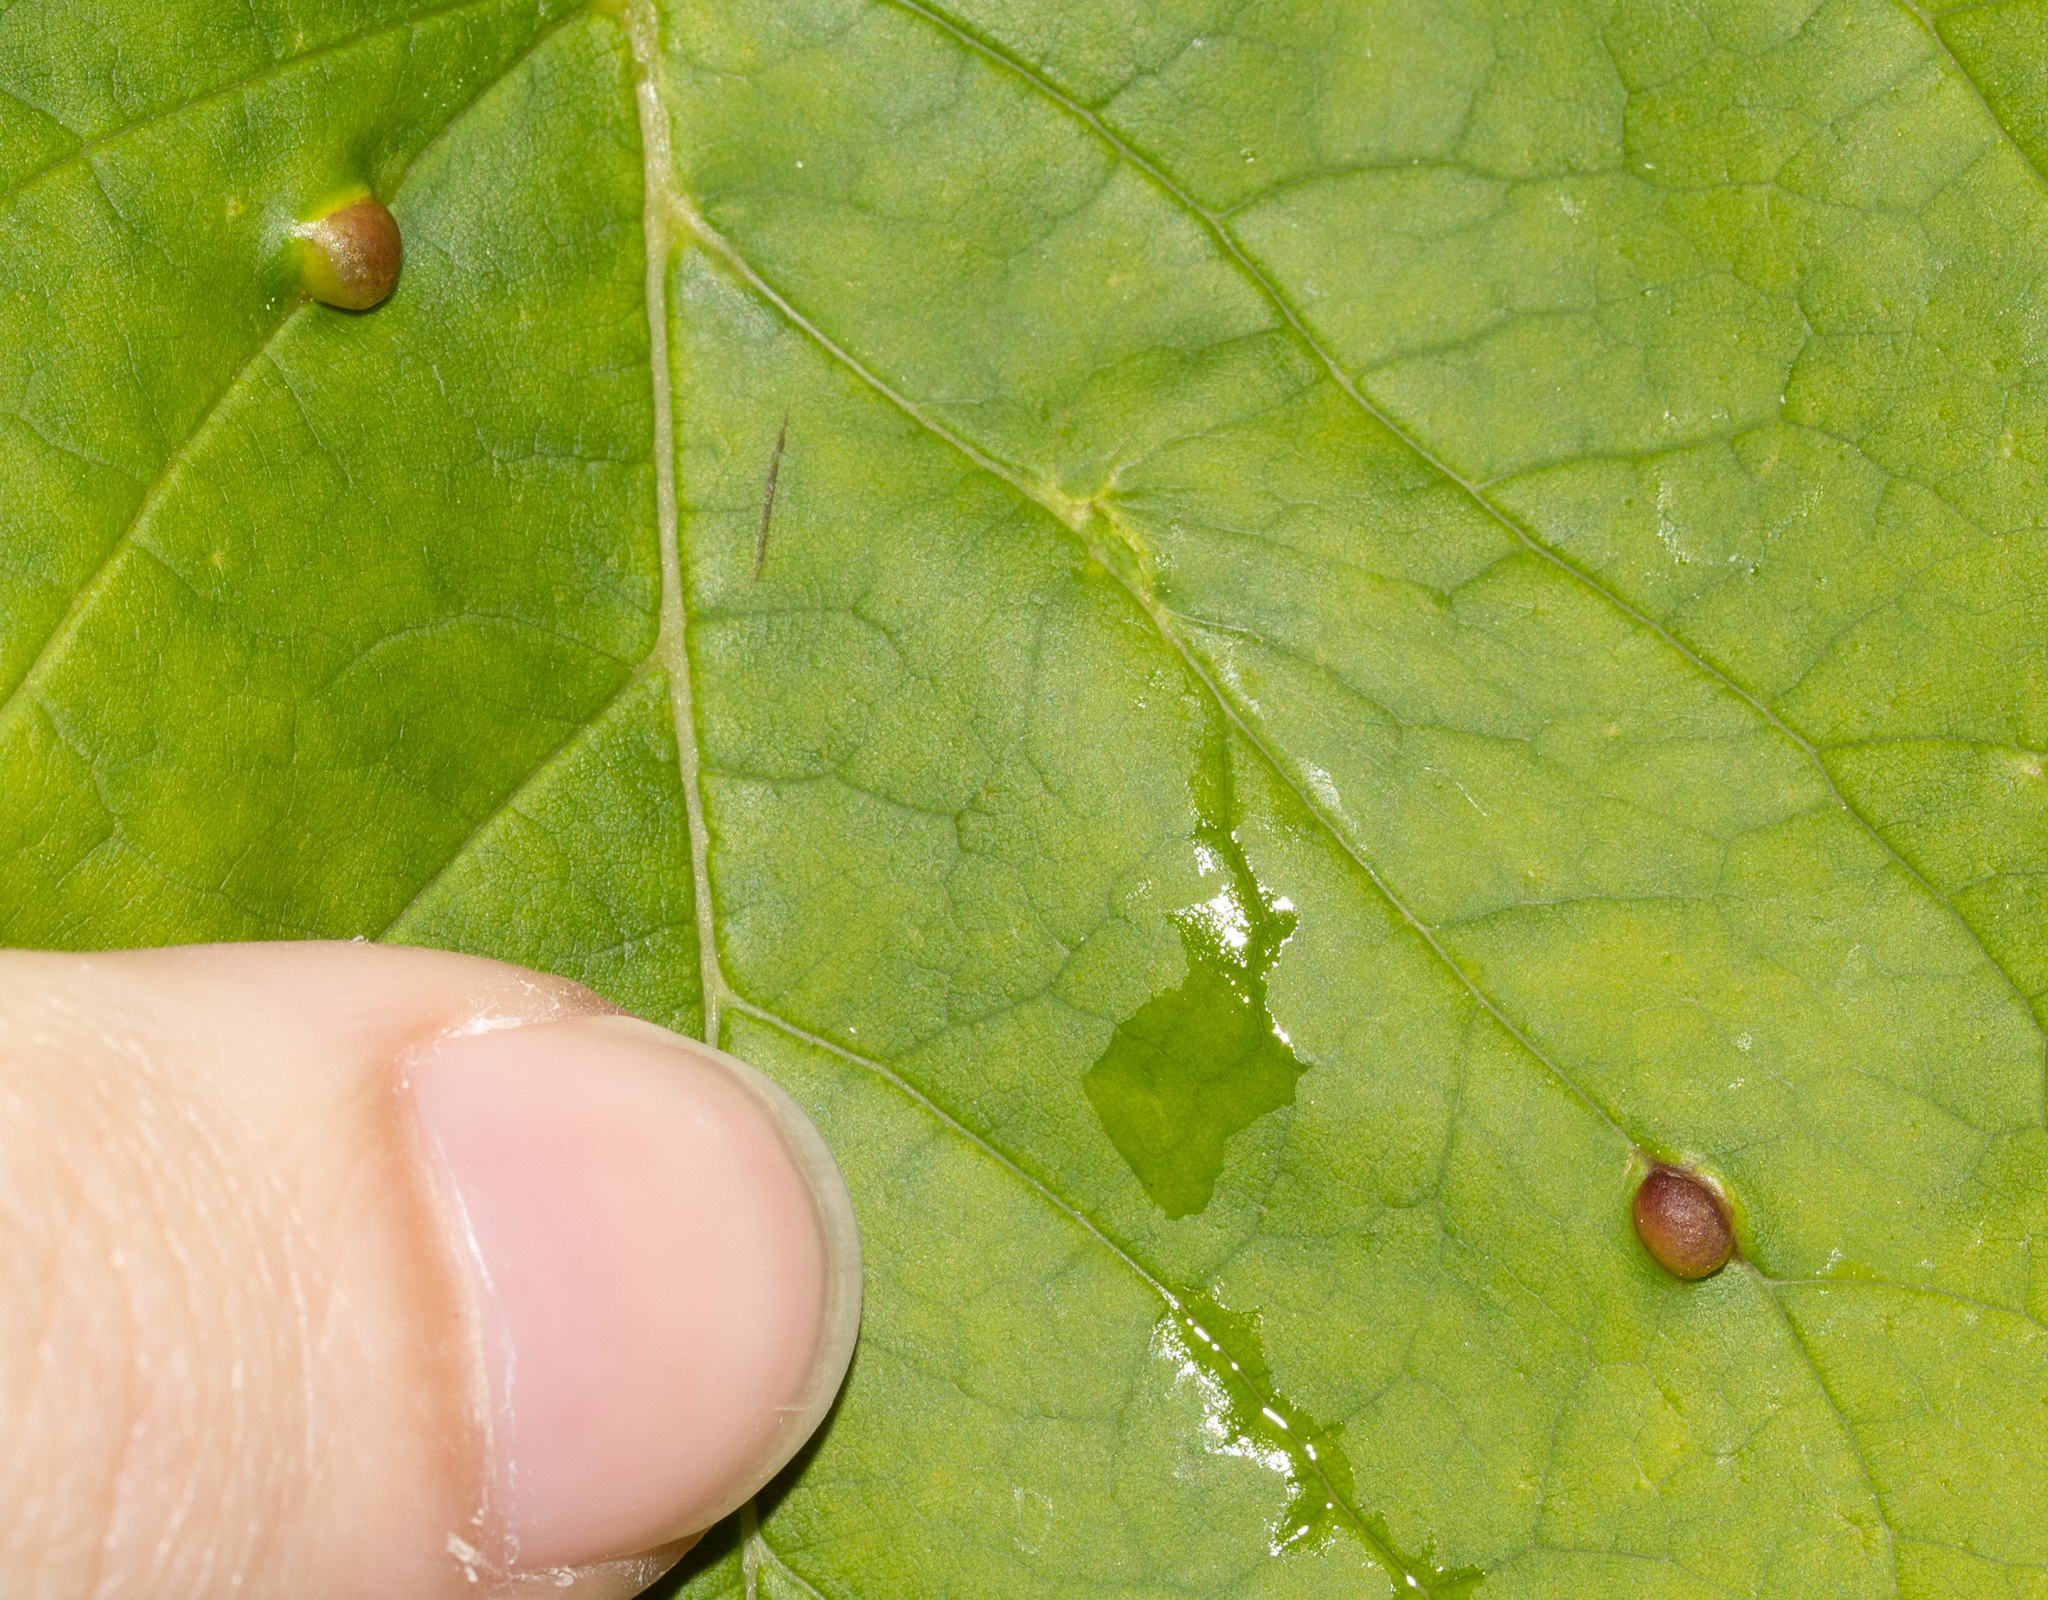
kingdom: Animalia
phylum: Arthropoda
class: Insecta
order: Diptera
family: Cecidomyiidae
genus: Dasineura
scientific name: Dasineura pellex
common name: Ash bullet gall midge
